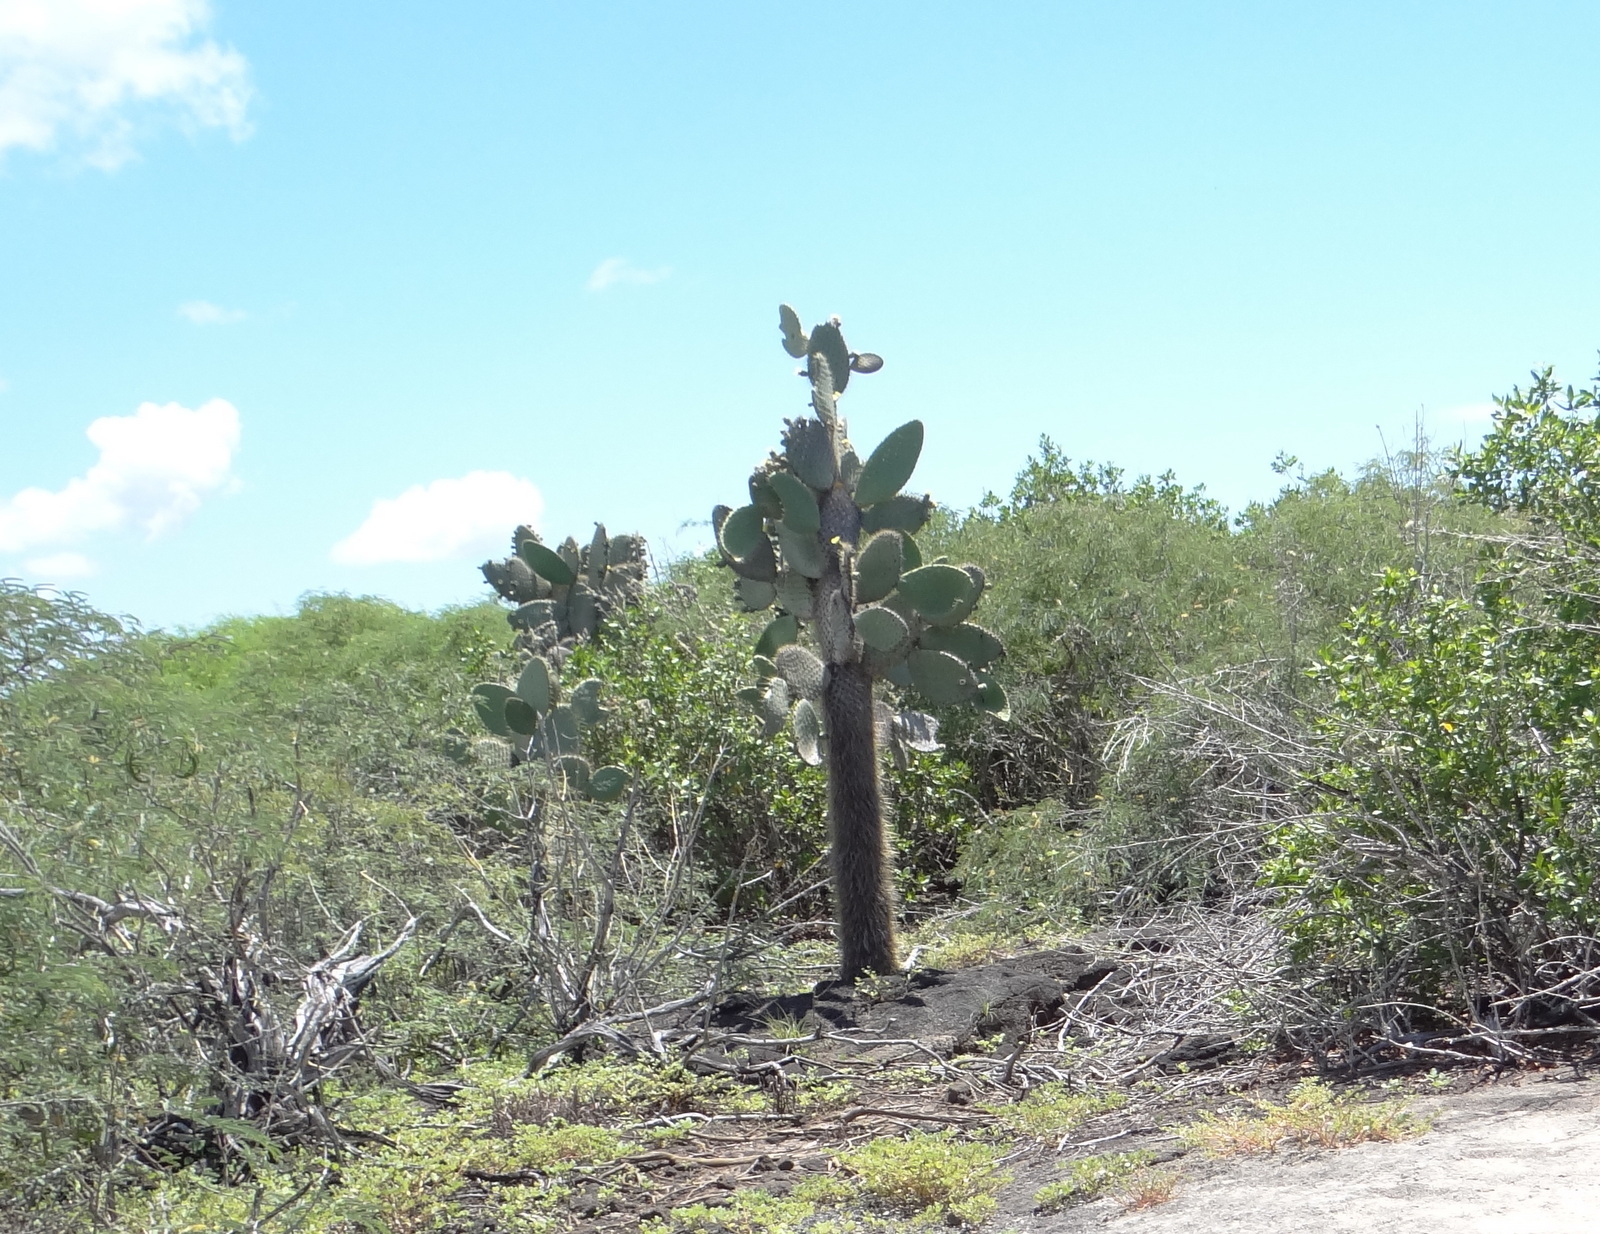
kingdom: Plantae
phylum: Tracheophyta
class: Magnoliopsida
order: Caryophyllales
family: Cactaceae
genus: Opuntia
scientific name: Opuntia galapageia
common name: Galápagos prickly pear
